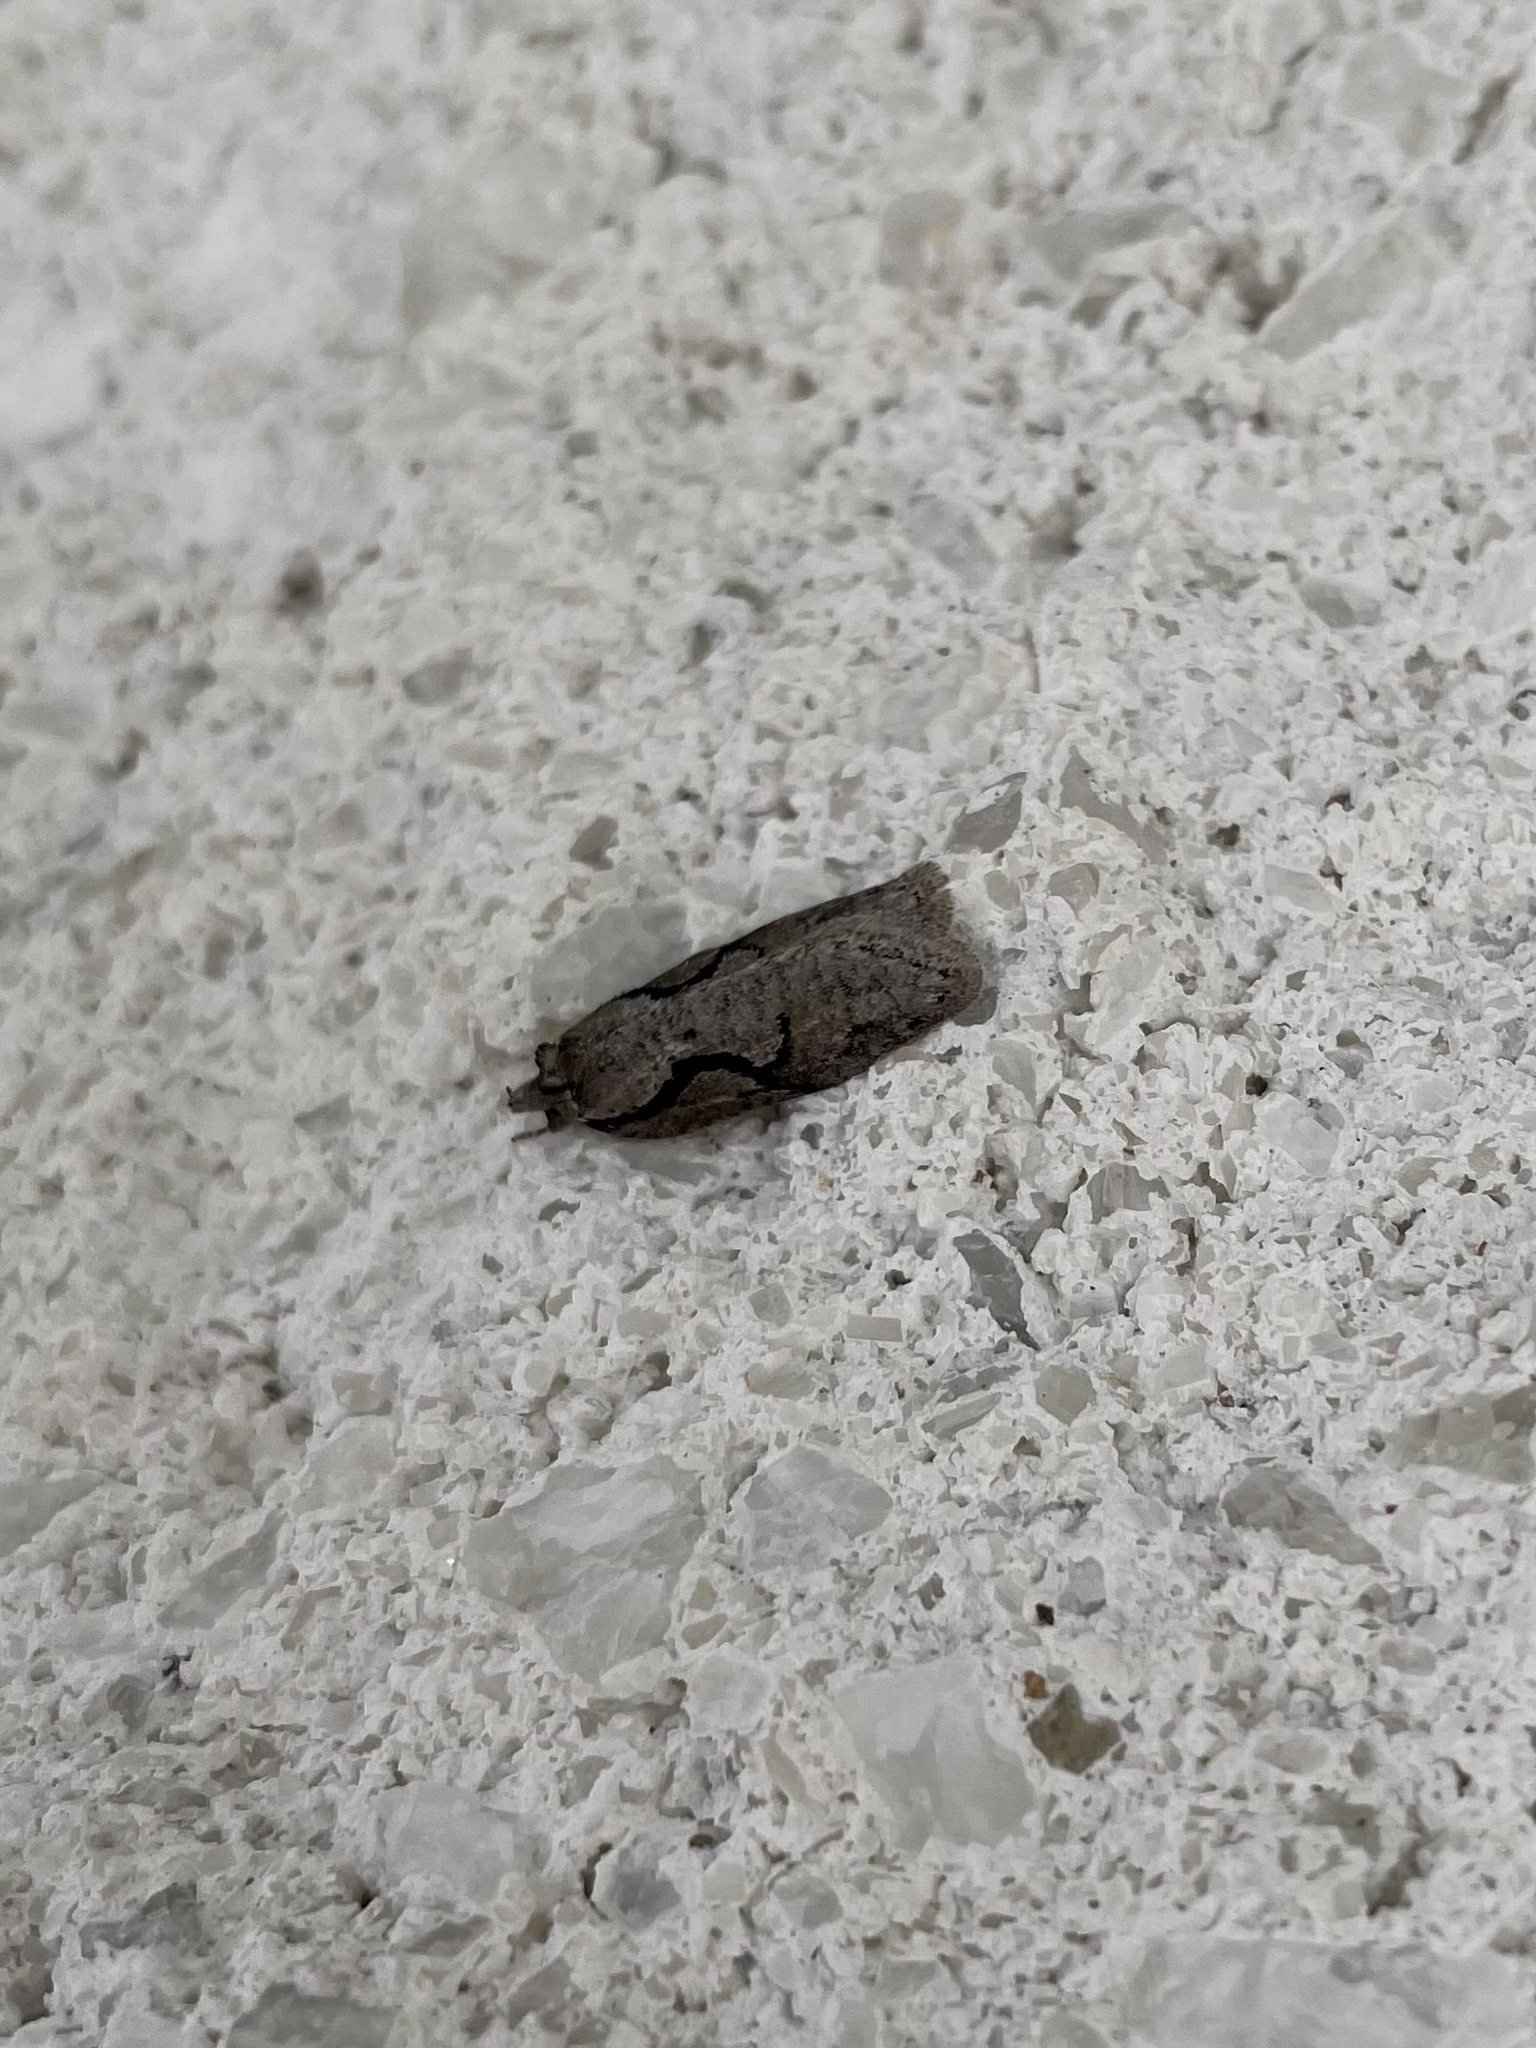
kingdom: Animalia
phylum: Arthropoda
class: Insecta
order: Lepidoptera
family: Depressariidae
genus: Semioscopis
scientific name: Semioscopis packardella
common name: Packard's concealer moth
